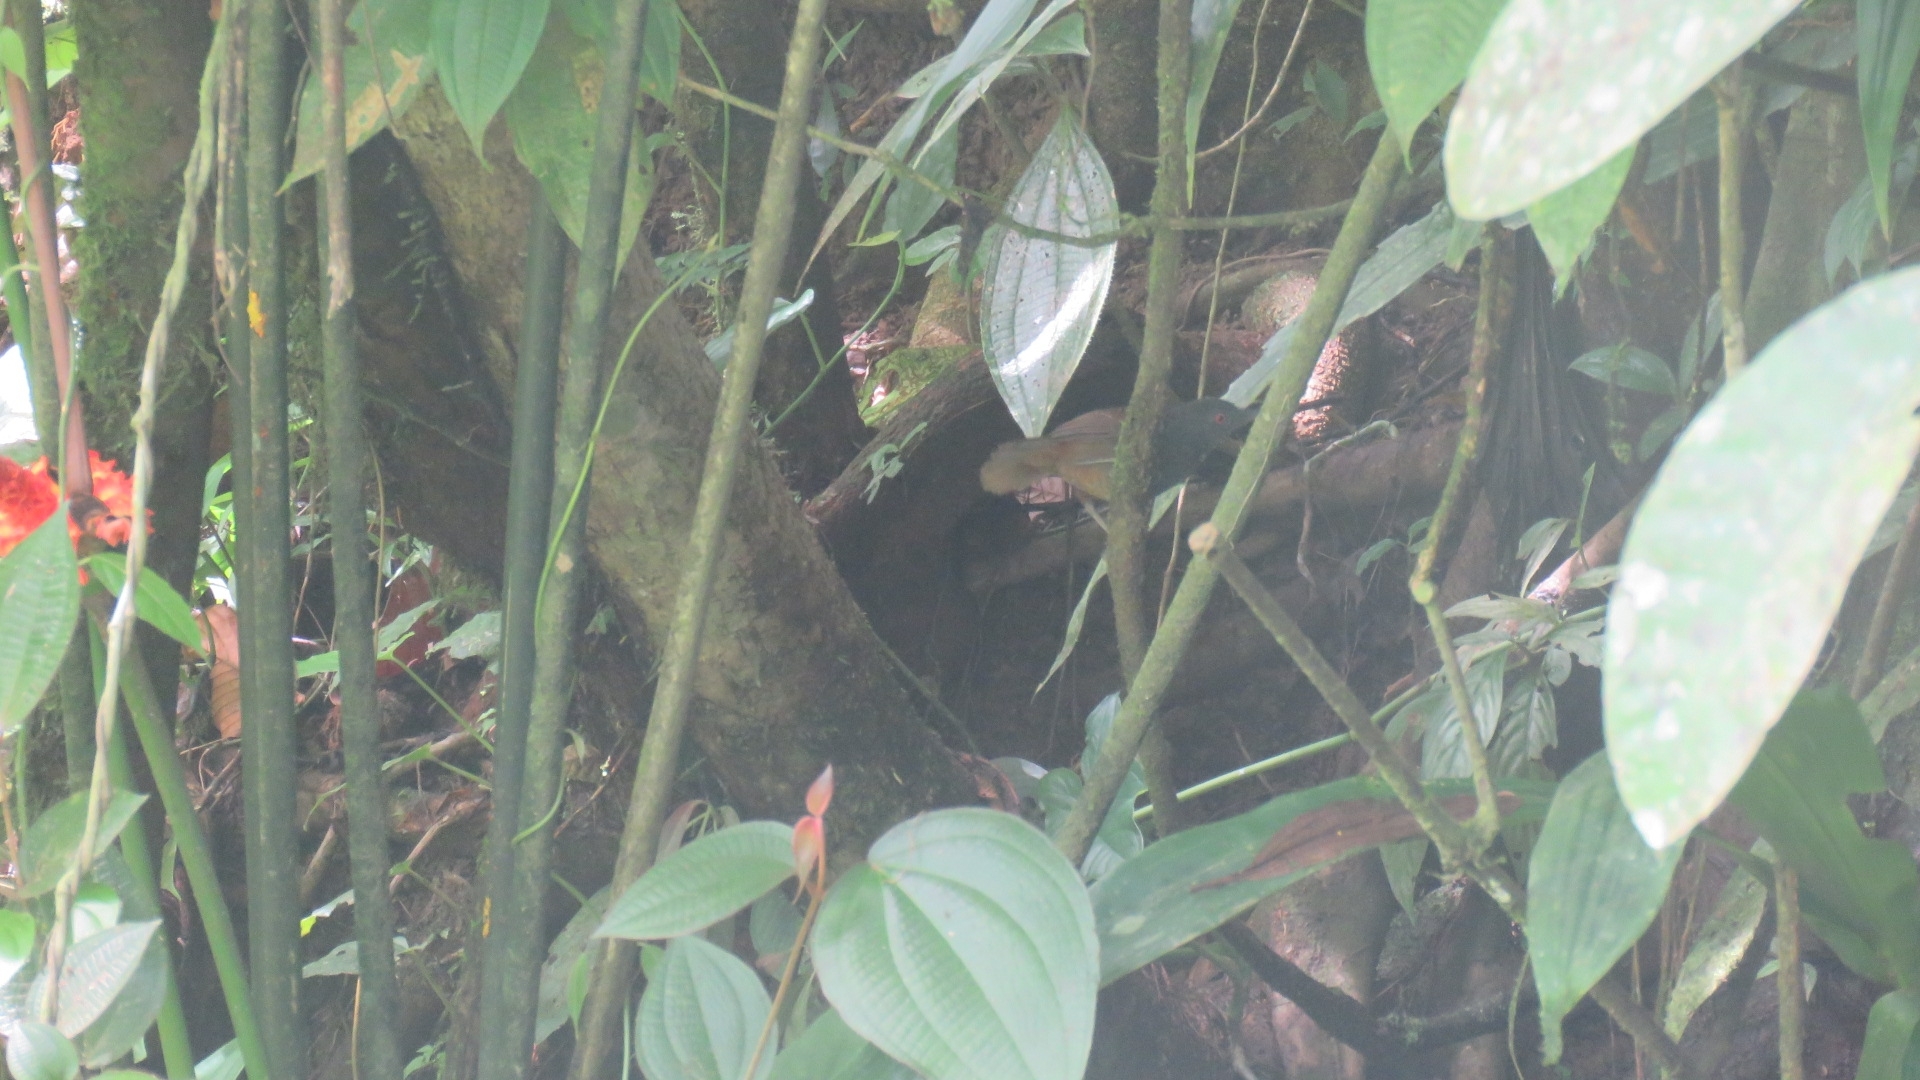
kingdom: Animalia
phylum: Chordata
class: Aves
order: Passeriformes
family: Thamnophilidae
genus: Sipia
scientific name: Sipia laemosticta
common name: Dull-mantled antbird
